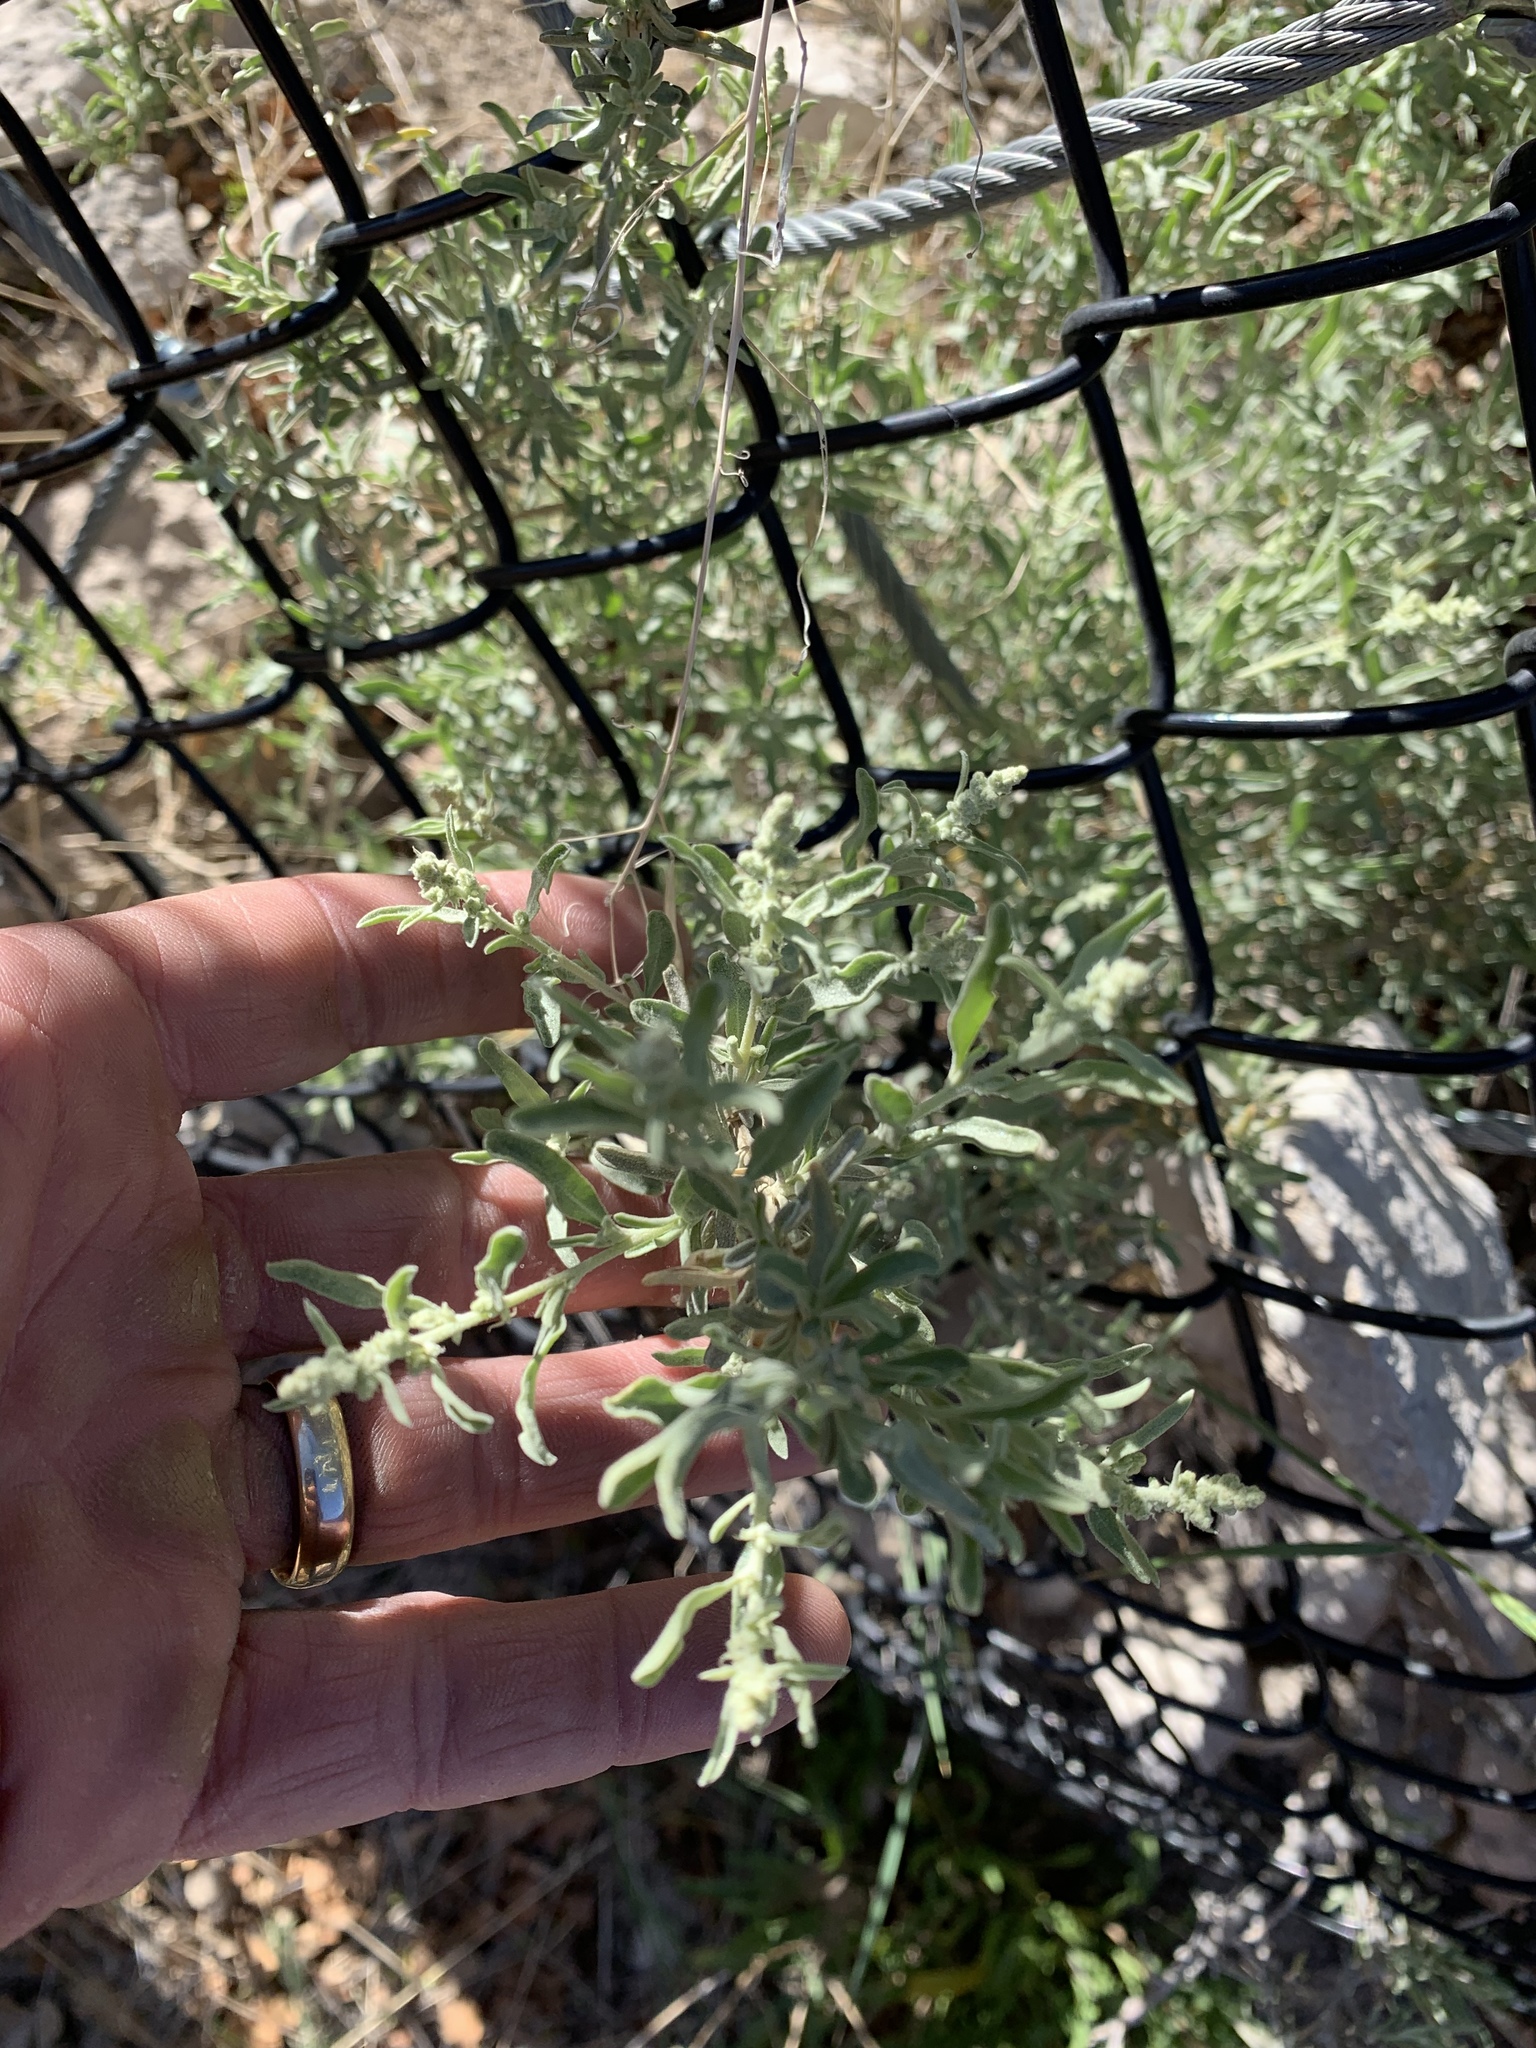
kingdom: Plantae
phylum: Tracheophyta
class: Magnoliopsida
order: Caryophyllales
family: Amaranthaceae
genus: Atriplex
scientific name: Atriplex canescens
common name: Four-wing saltbush
